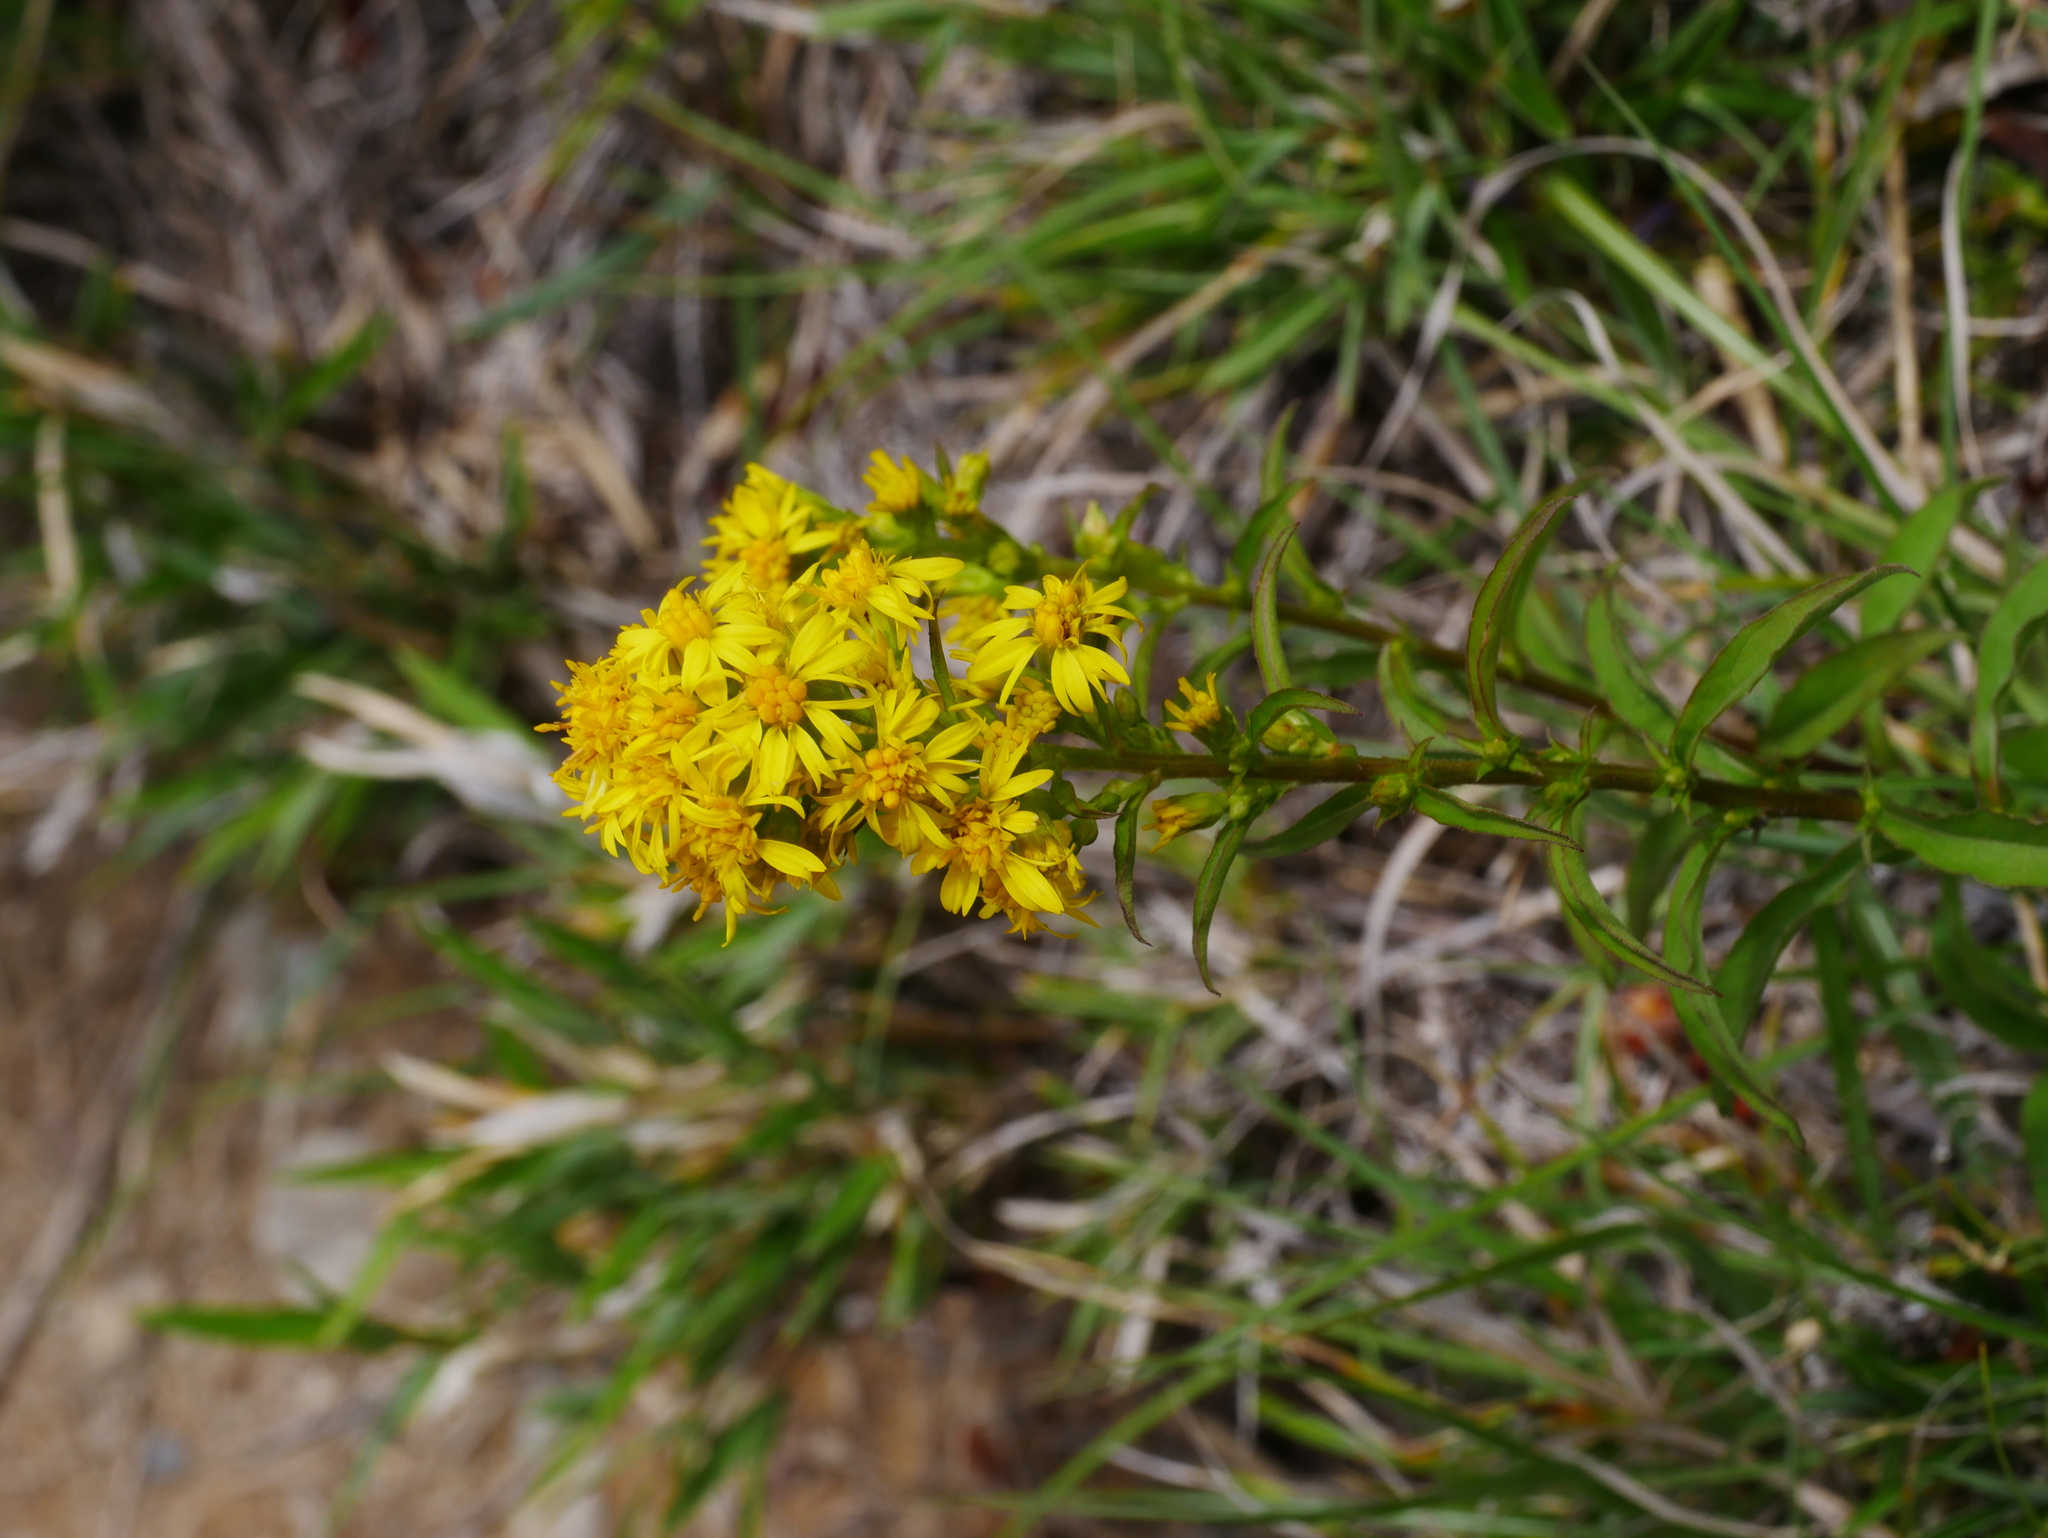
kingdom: Plantae
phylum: Tracheophyta
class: Magnoliopsida
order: Asterales
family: Asteraceae
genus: Solidago
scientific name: Solidago decurrens
